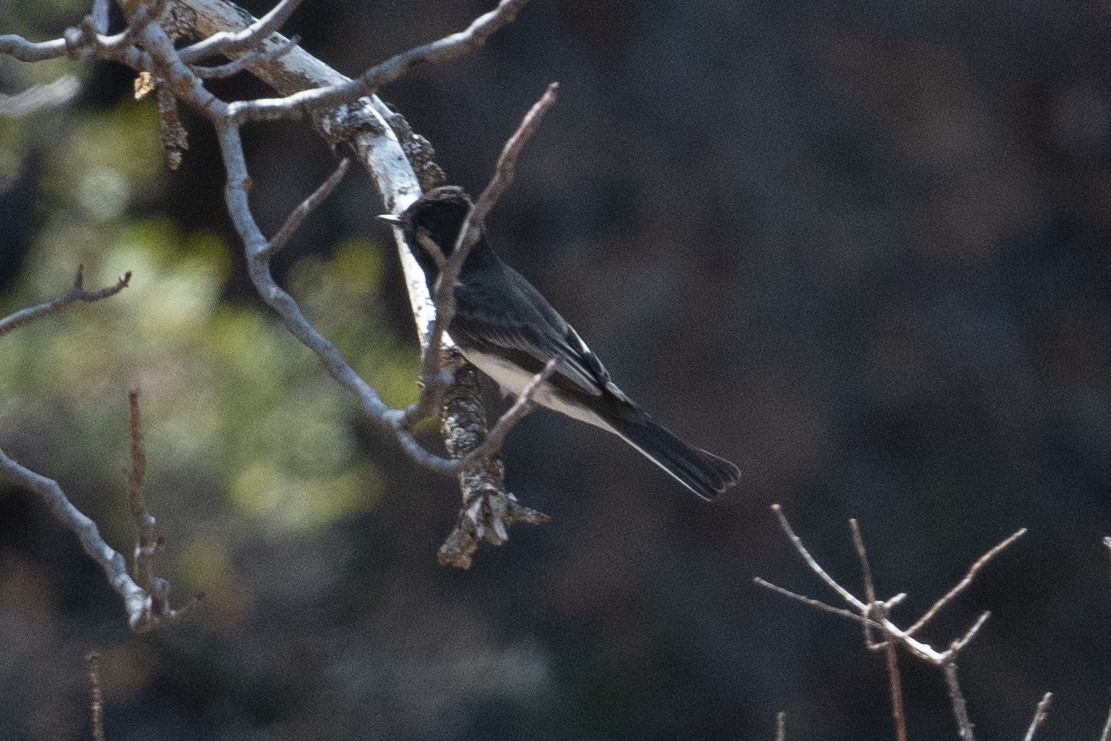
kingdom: Animalia
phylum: Chordata
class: Aves
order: Passeriformes
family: Tyrannidae
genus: Sayornis
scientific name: Sayornis nigricans
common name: Black phoebe
